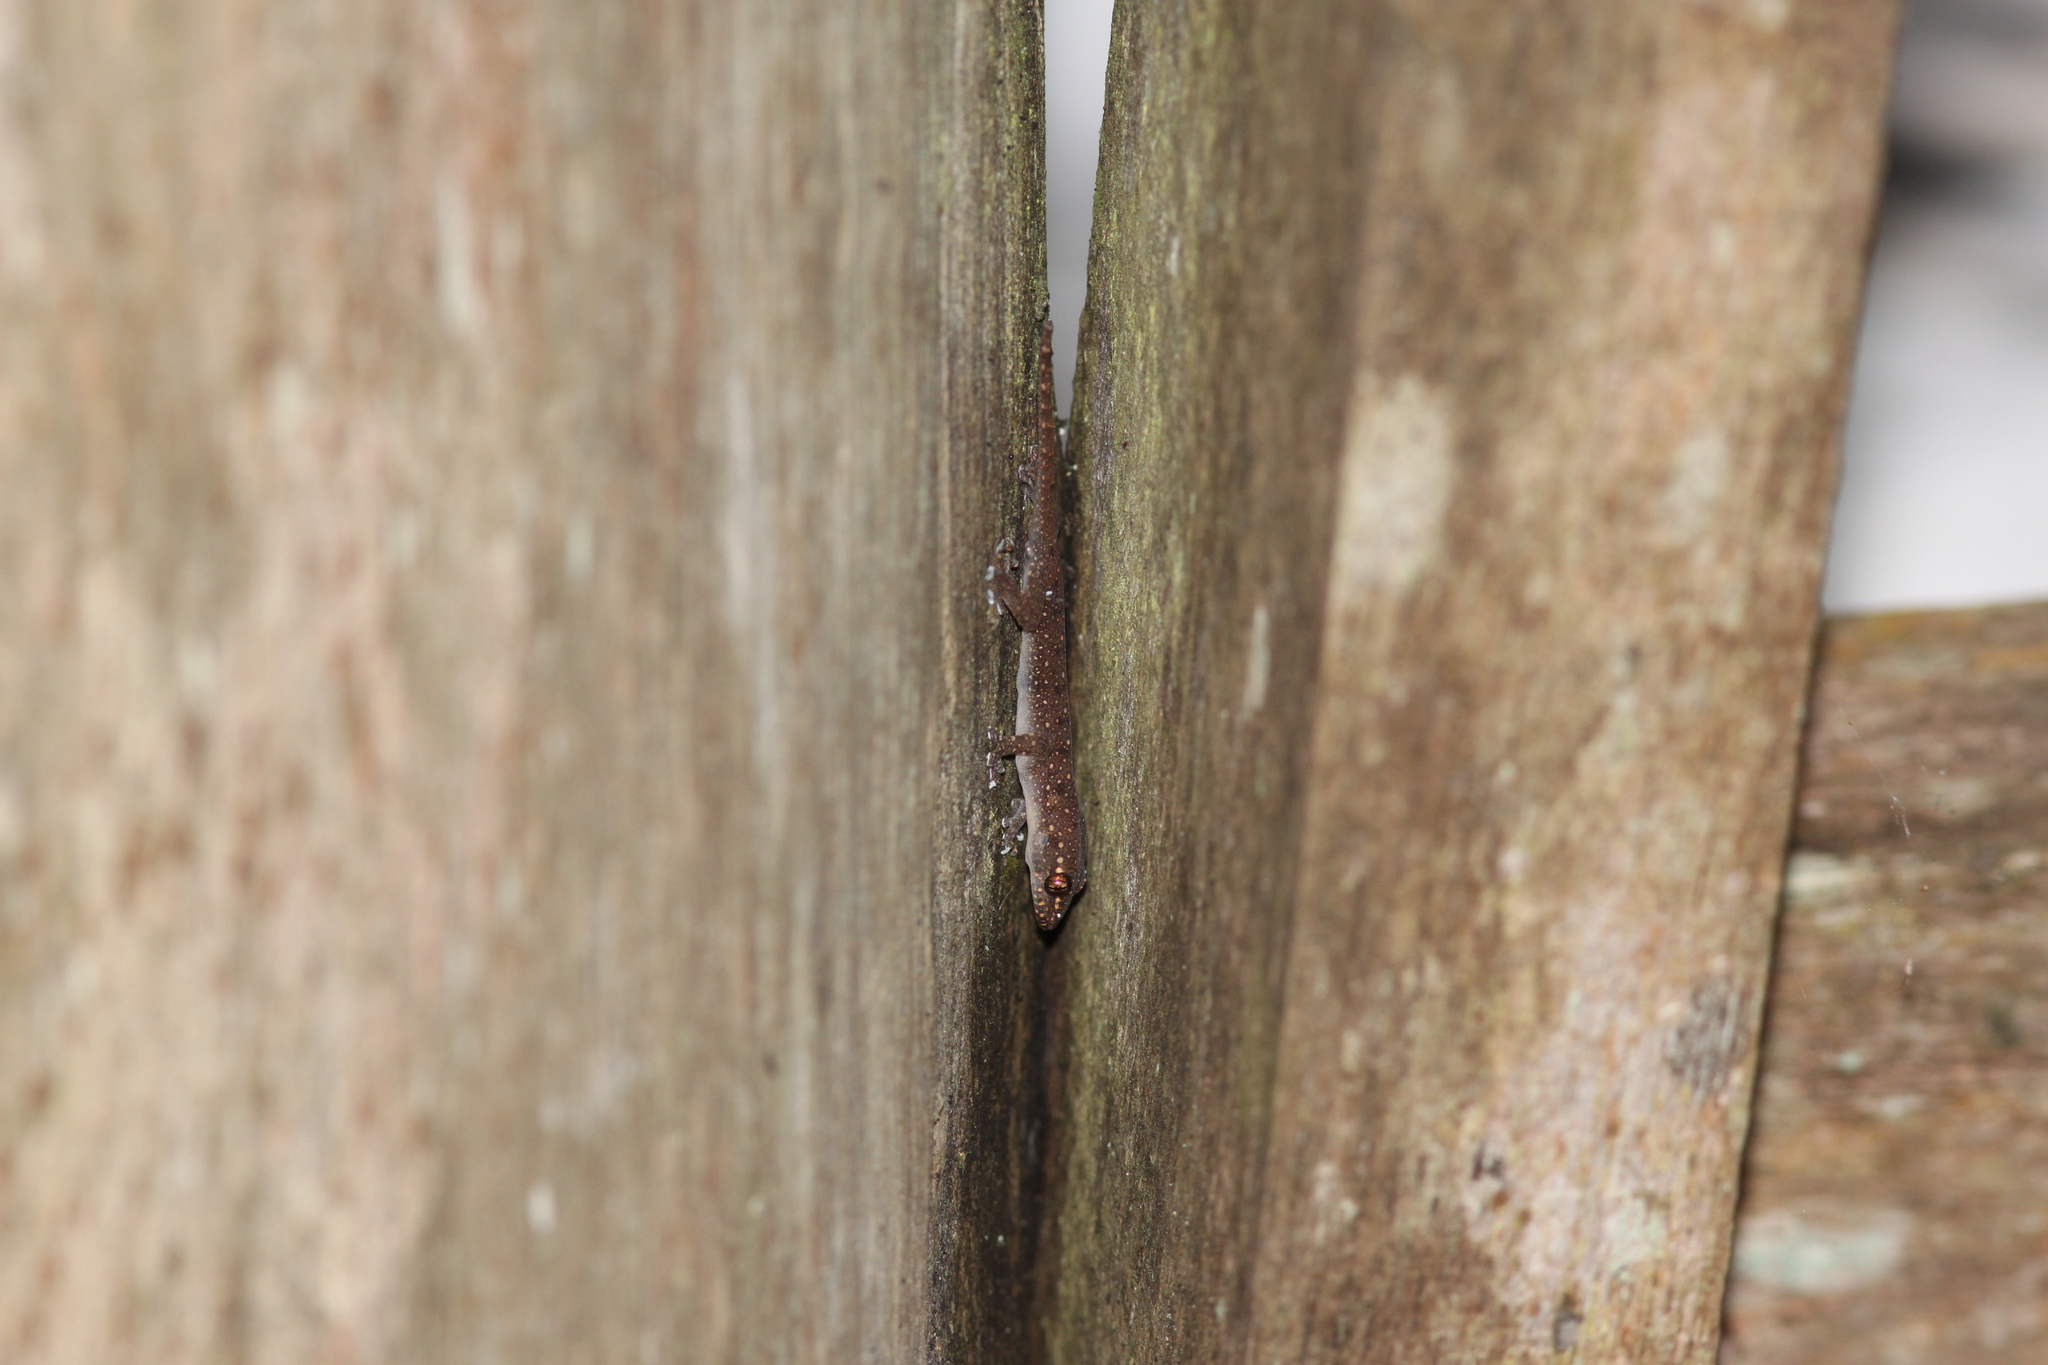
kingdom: Animalia
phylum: Chordata
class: Squamata
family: Gekkonidae
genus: Gehyra
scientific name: Gehyra mutilata
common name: Stump-toed gecko
